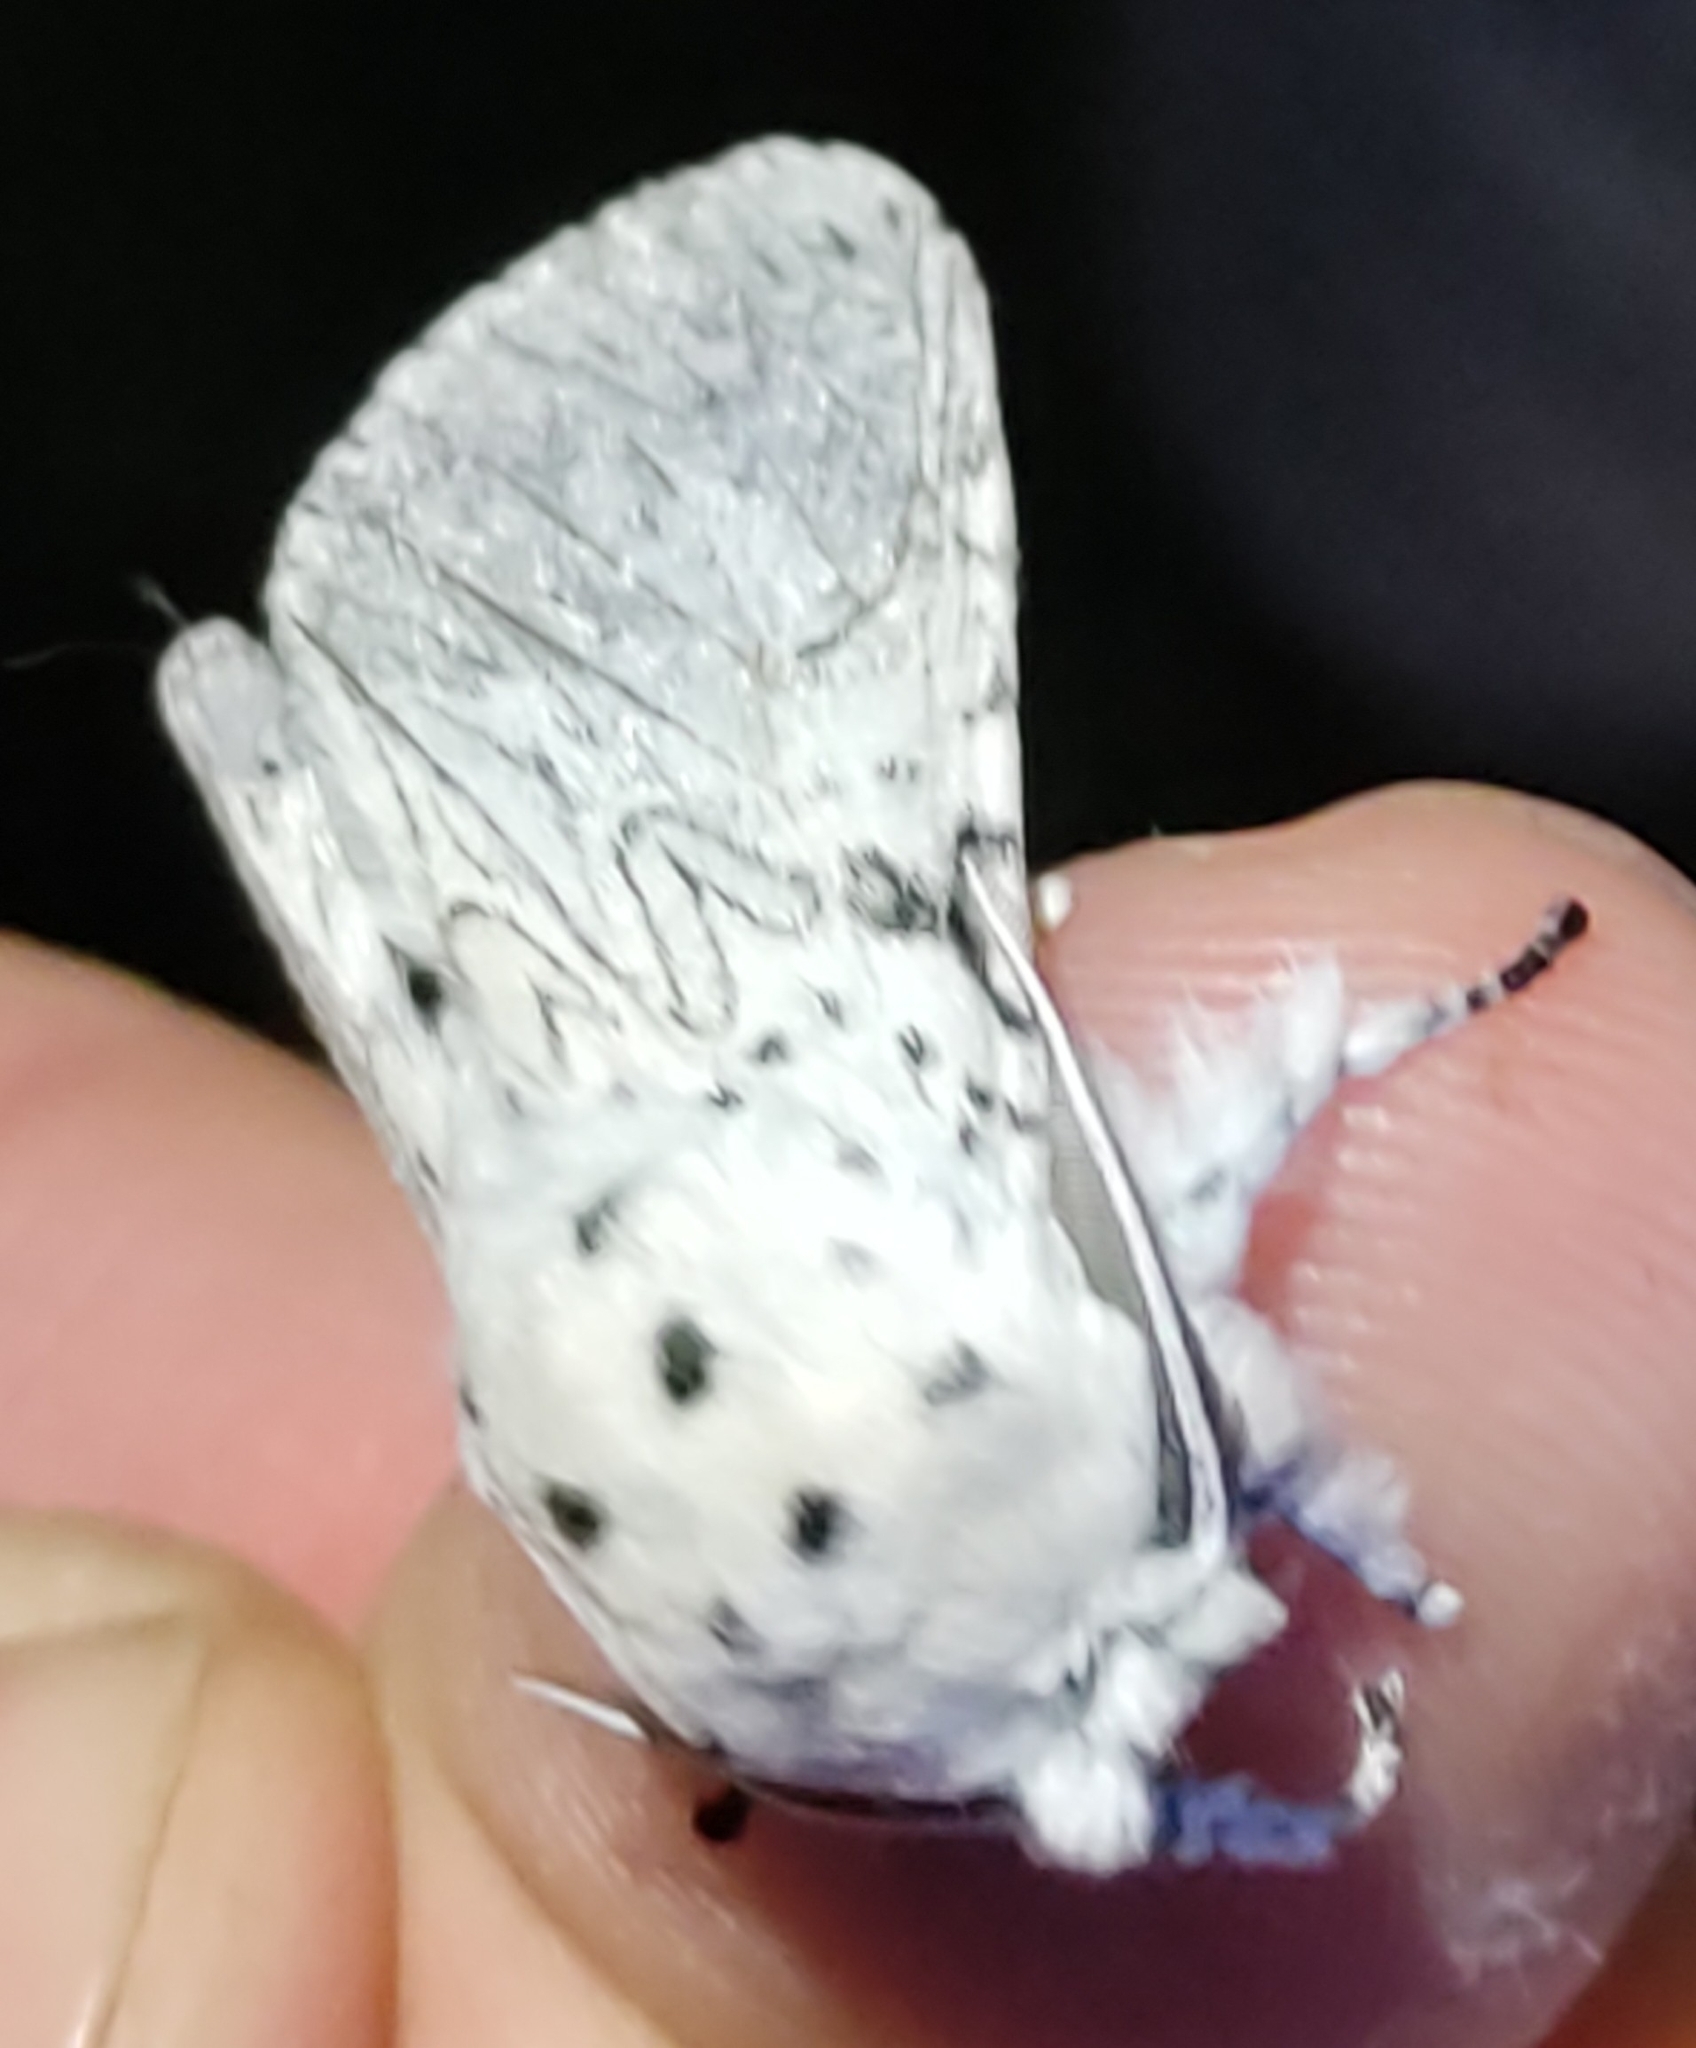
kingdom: Animalia
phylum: Arthropoda
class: Insecta
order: Lepidoptera
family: Notodontidae
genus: Cerura
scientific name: Cerura erminea
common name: Lesser puss moth
